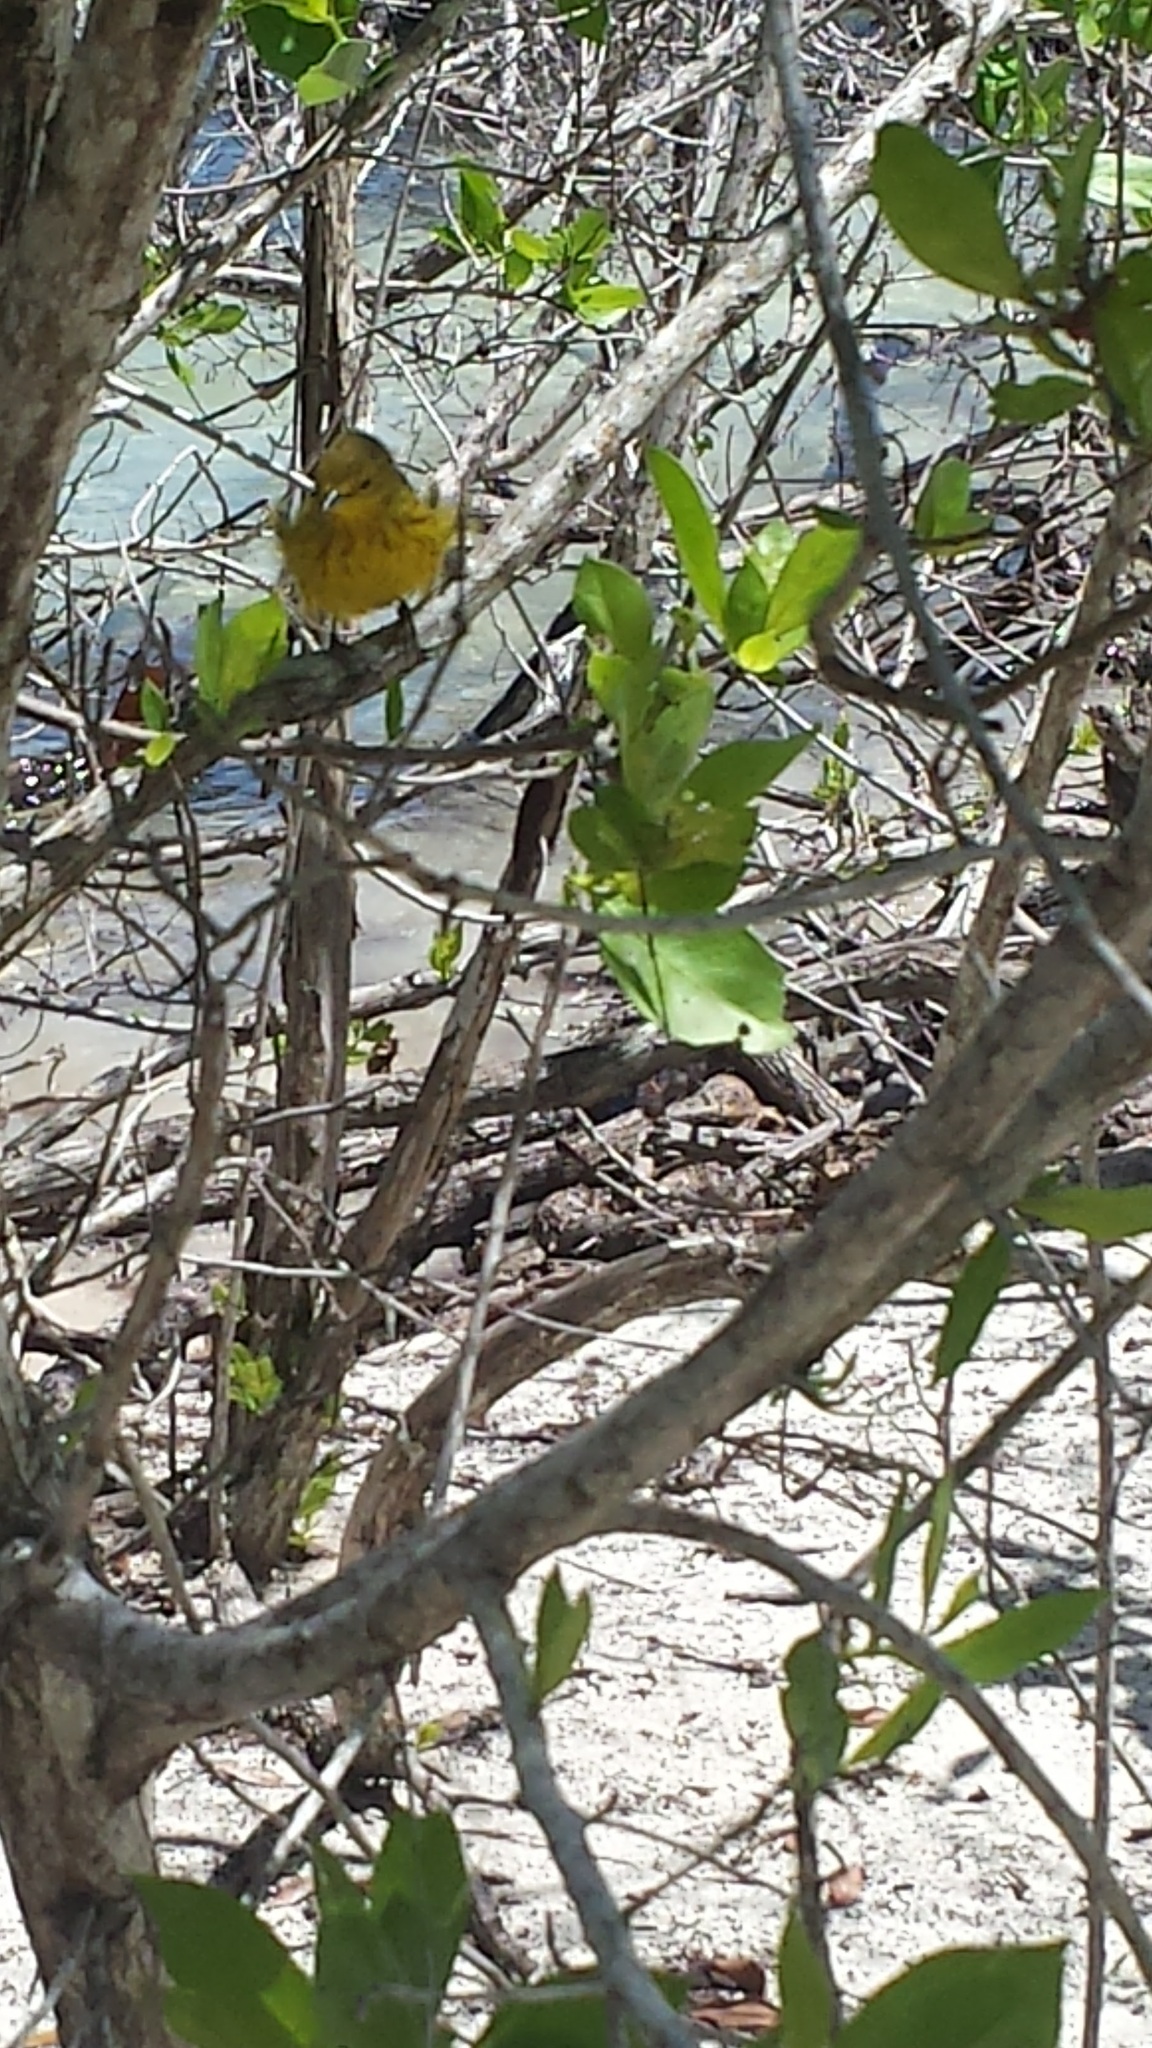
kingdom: Animalia
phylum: Chordata
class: Aves
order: Passeriformes
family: Parulidae
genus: Setophaga
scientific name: Setophaga petechia
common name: Yellow warbler
